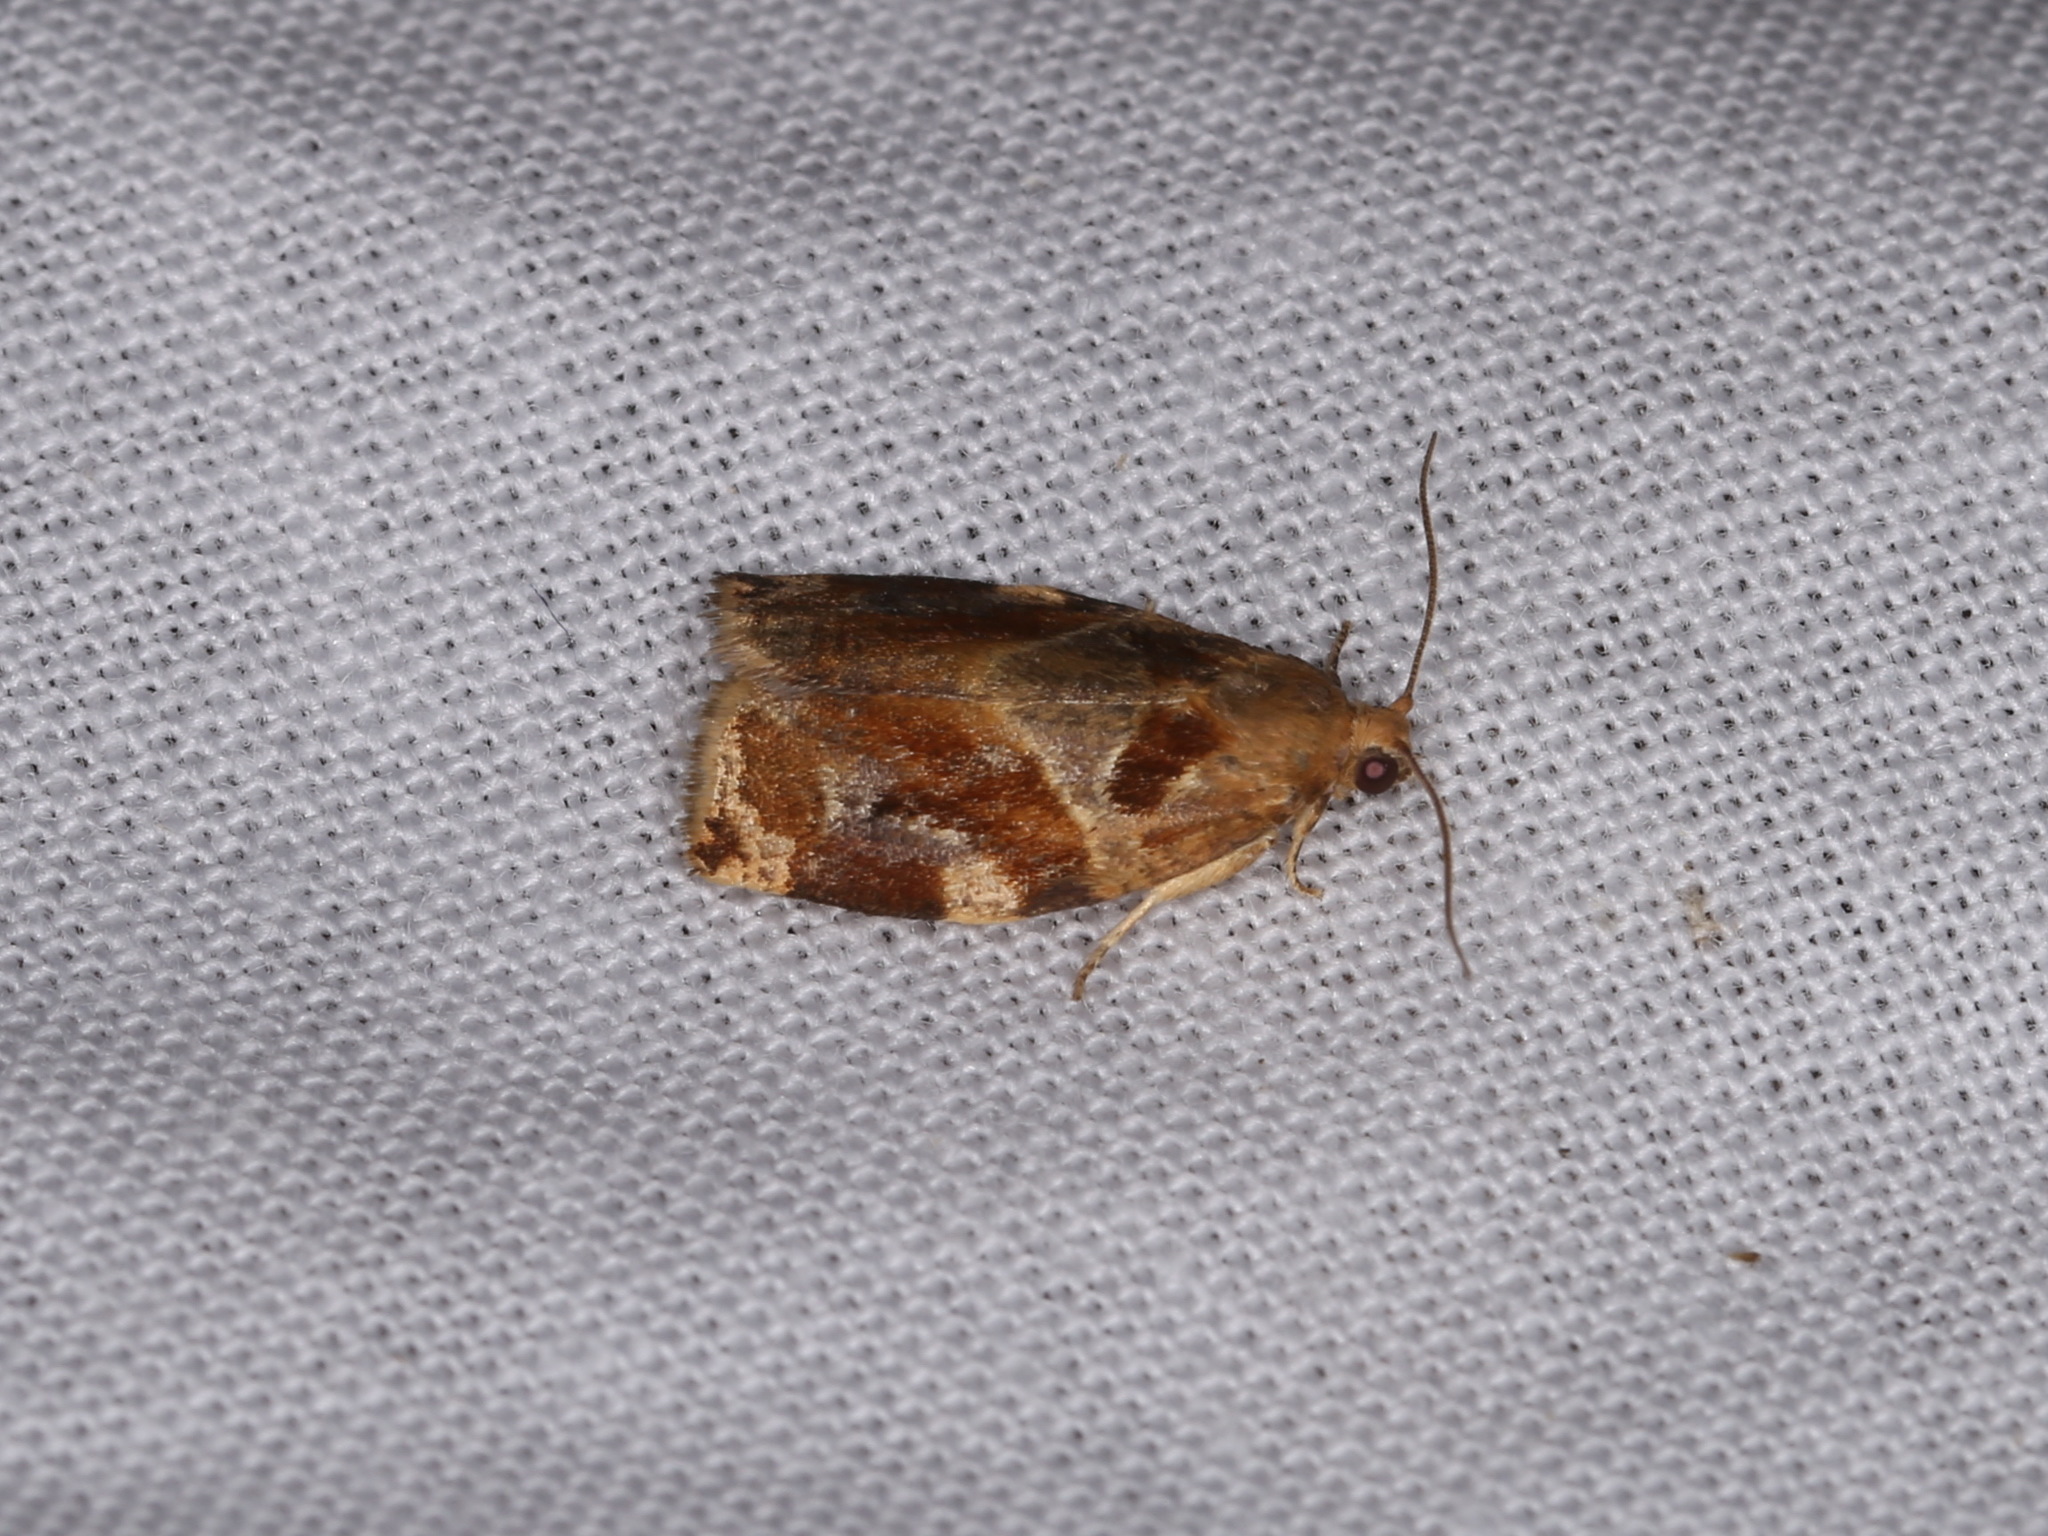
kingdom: Animalia
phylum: Arthropoda
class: Insecta
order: Lepidoptera
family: Tortricidae
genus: Archips
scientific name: Archips xylosteana
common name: Variegated golden tortrix
